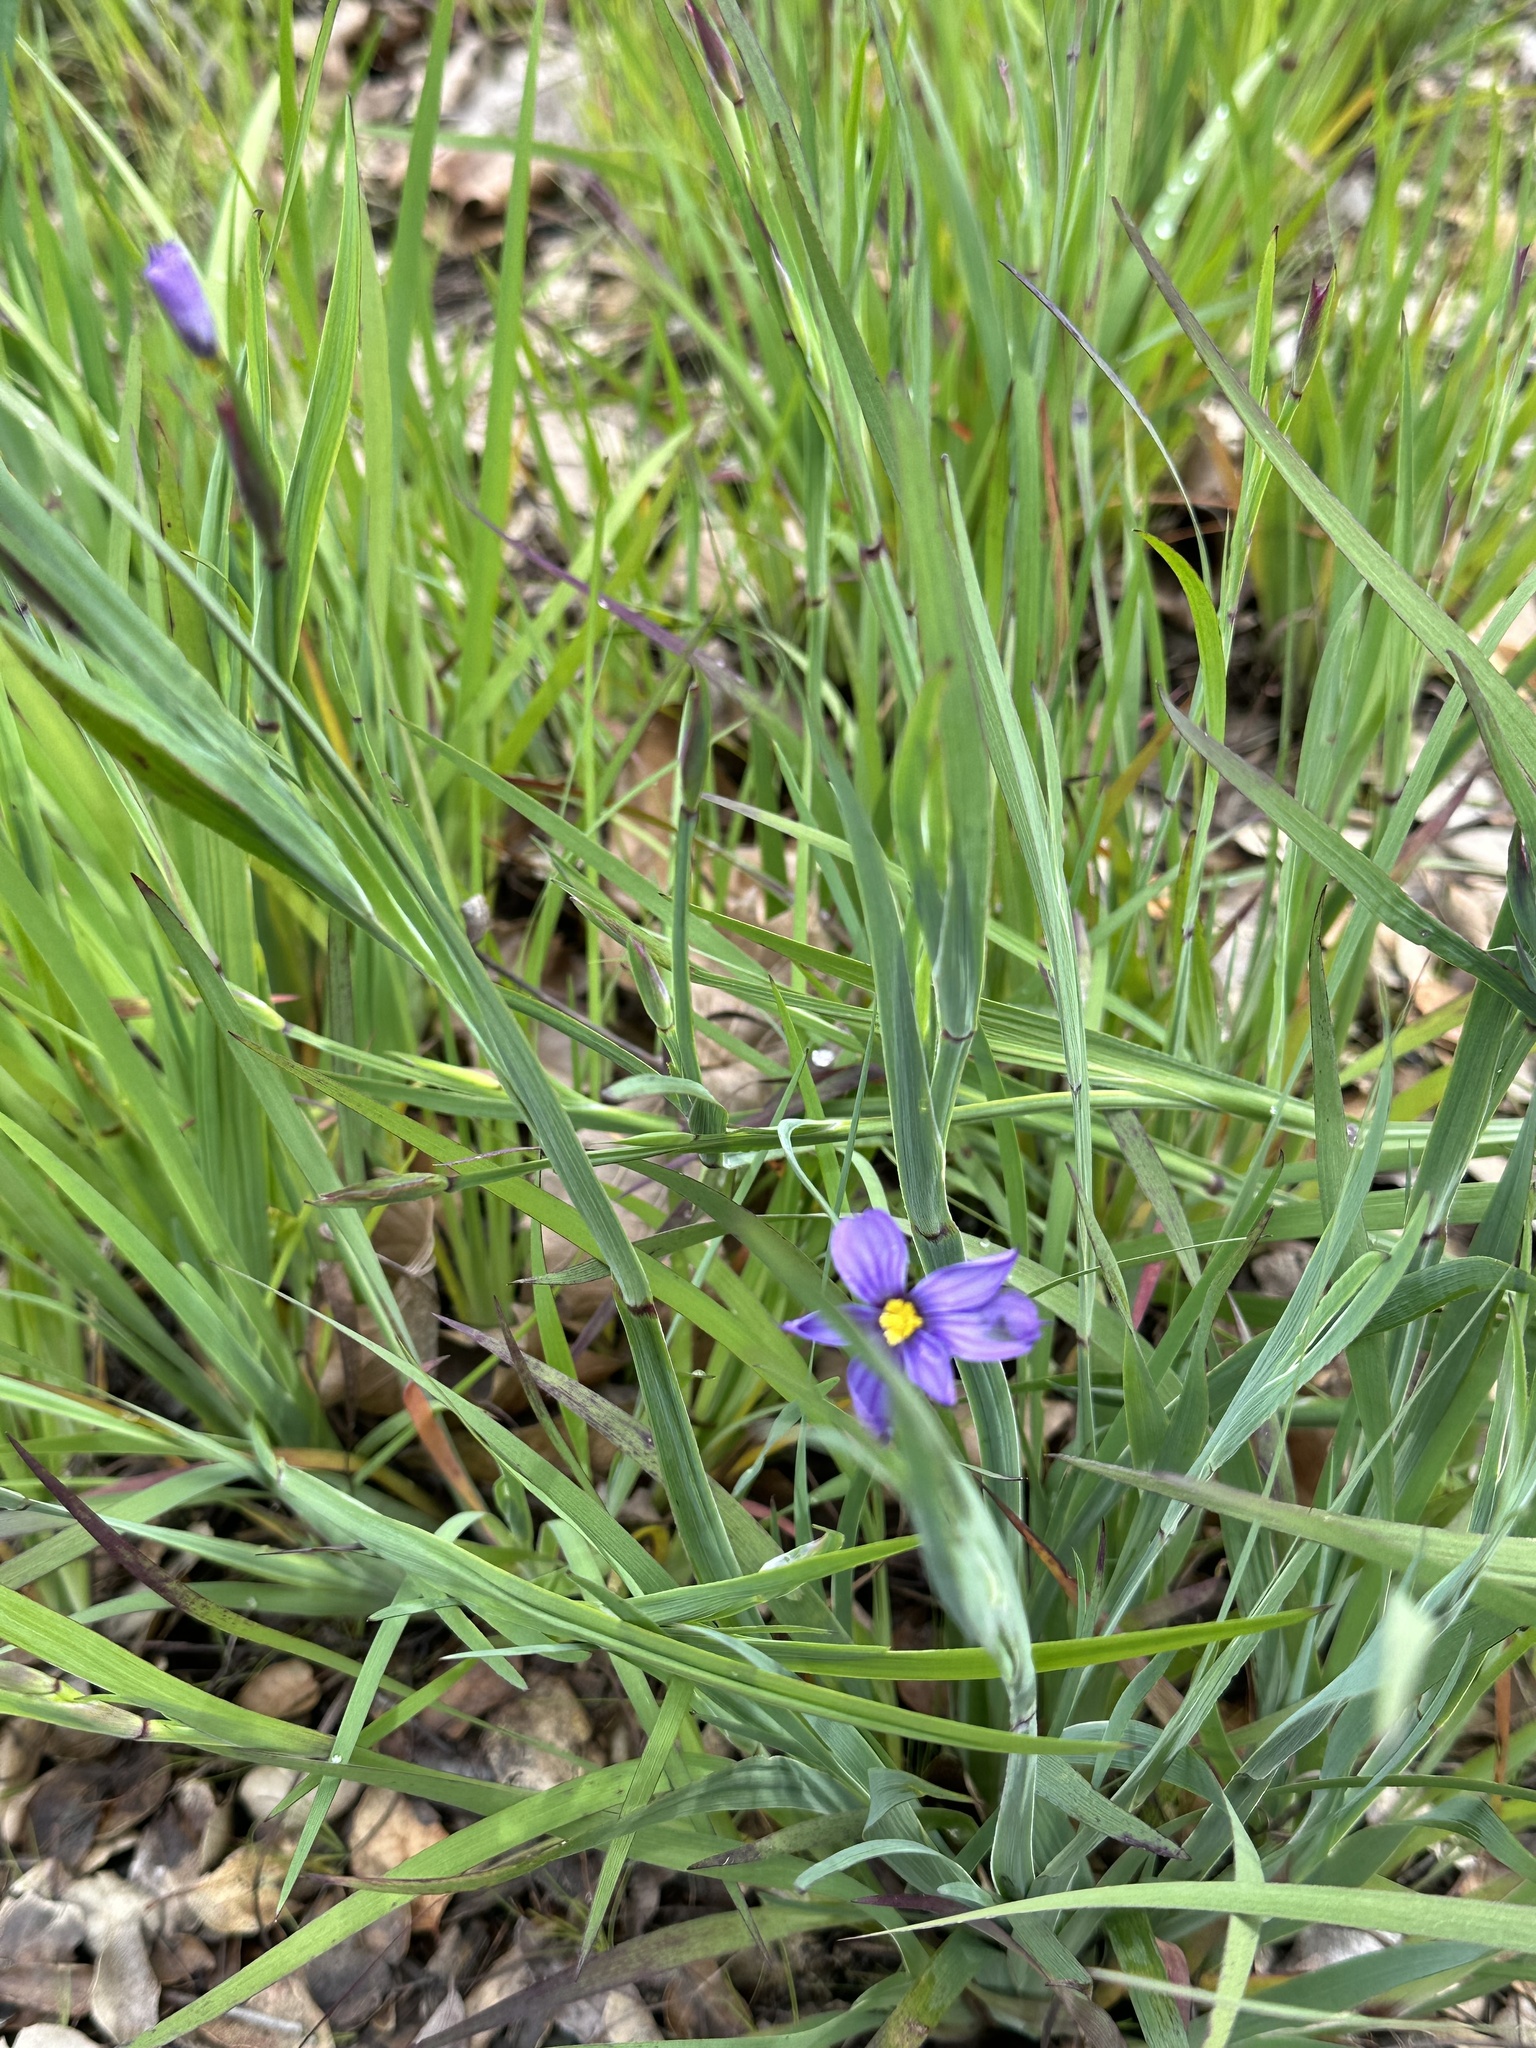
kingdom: Plantae
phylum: Tracheophyta
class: Liliopsida
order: Asparagales
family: Iridaceae
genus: Sisyrinchium
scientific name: Sisyrinchium bellum
